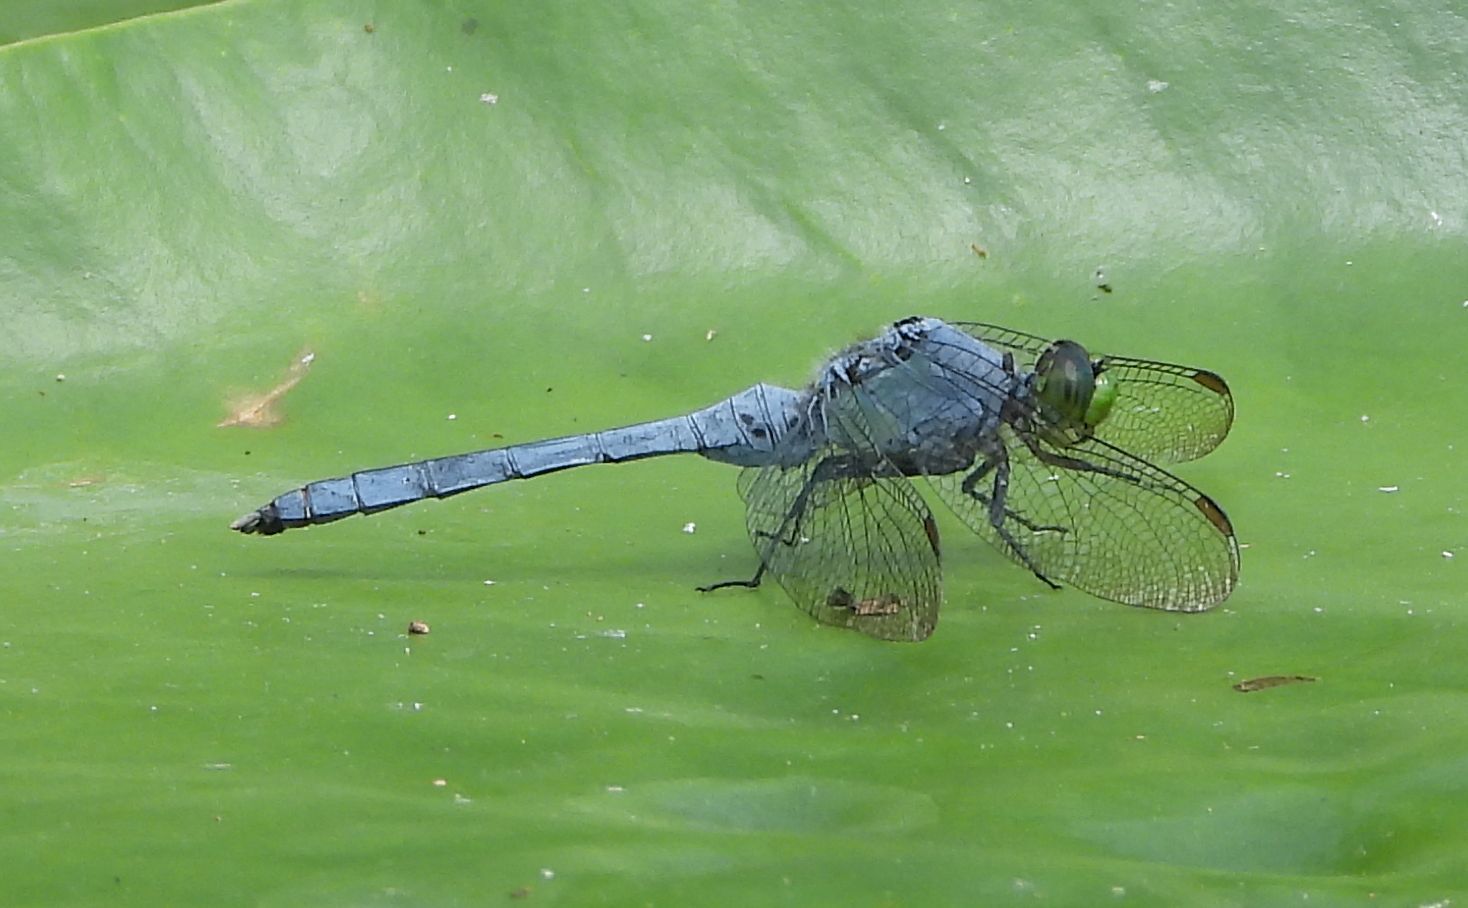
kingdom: Animalia
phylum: Arthropoda
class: Insecta
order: Odonata
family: Libellulidae
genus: Erythemis
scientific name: Erythemis simplicicollis
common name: Eastern pondhawk
